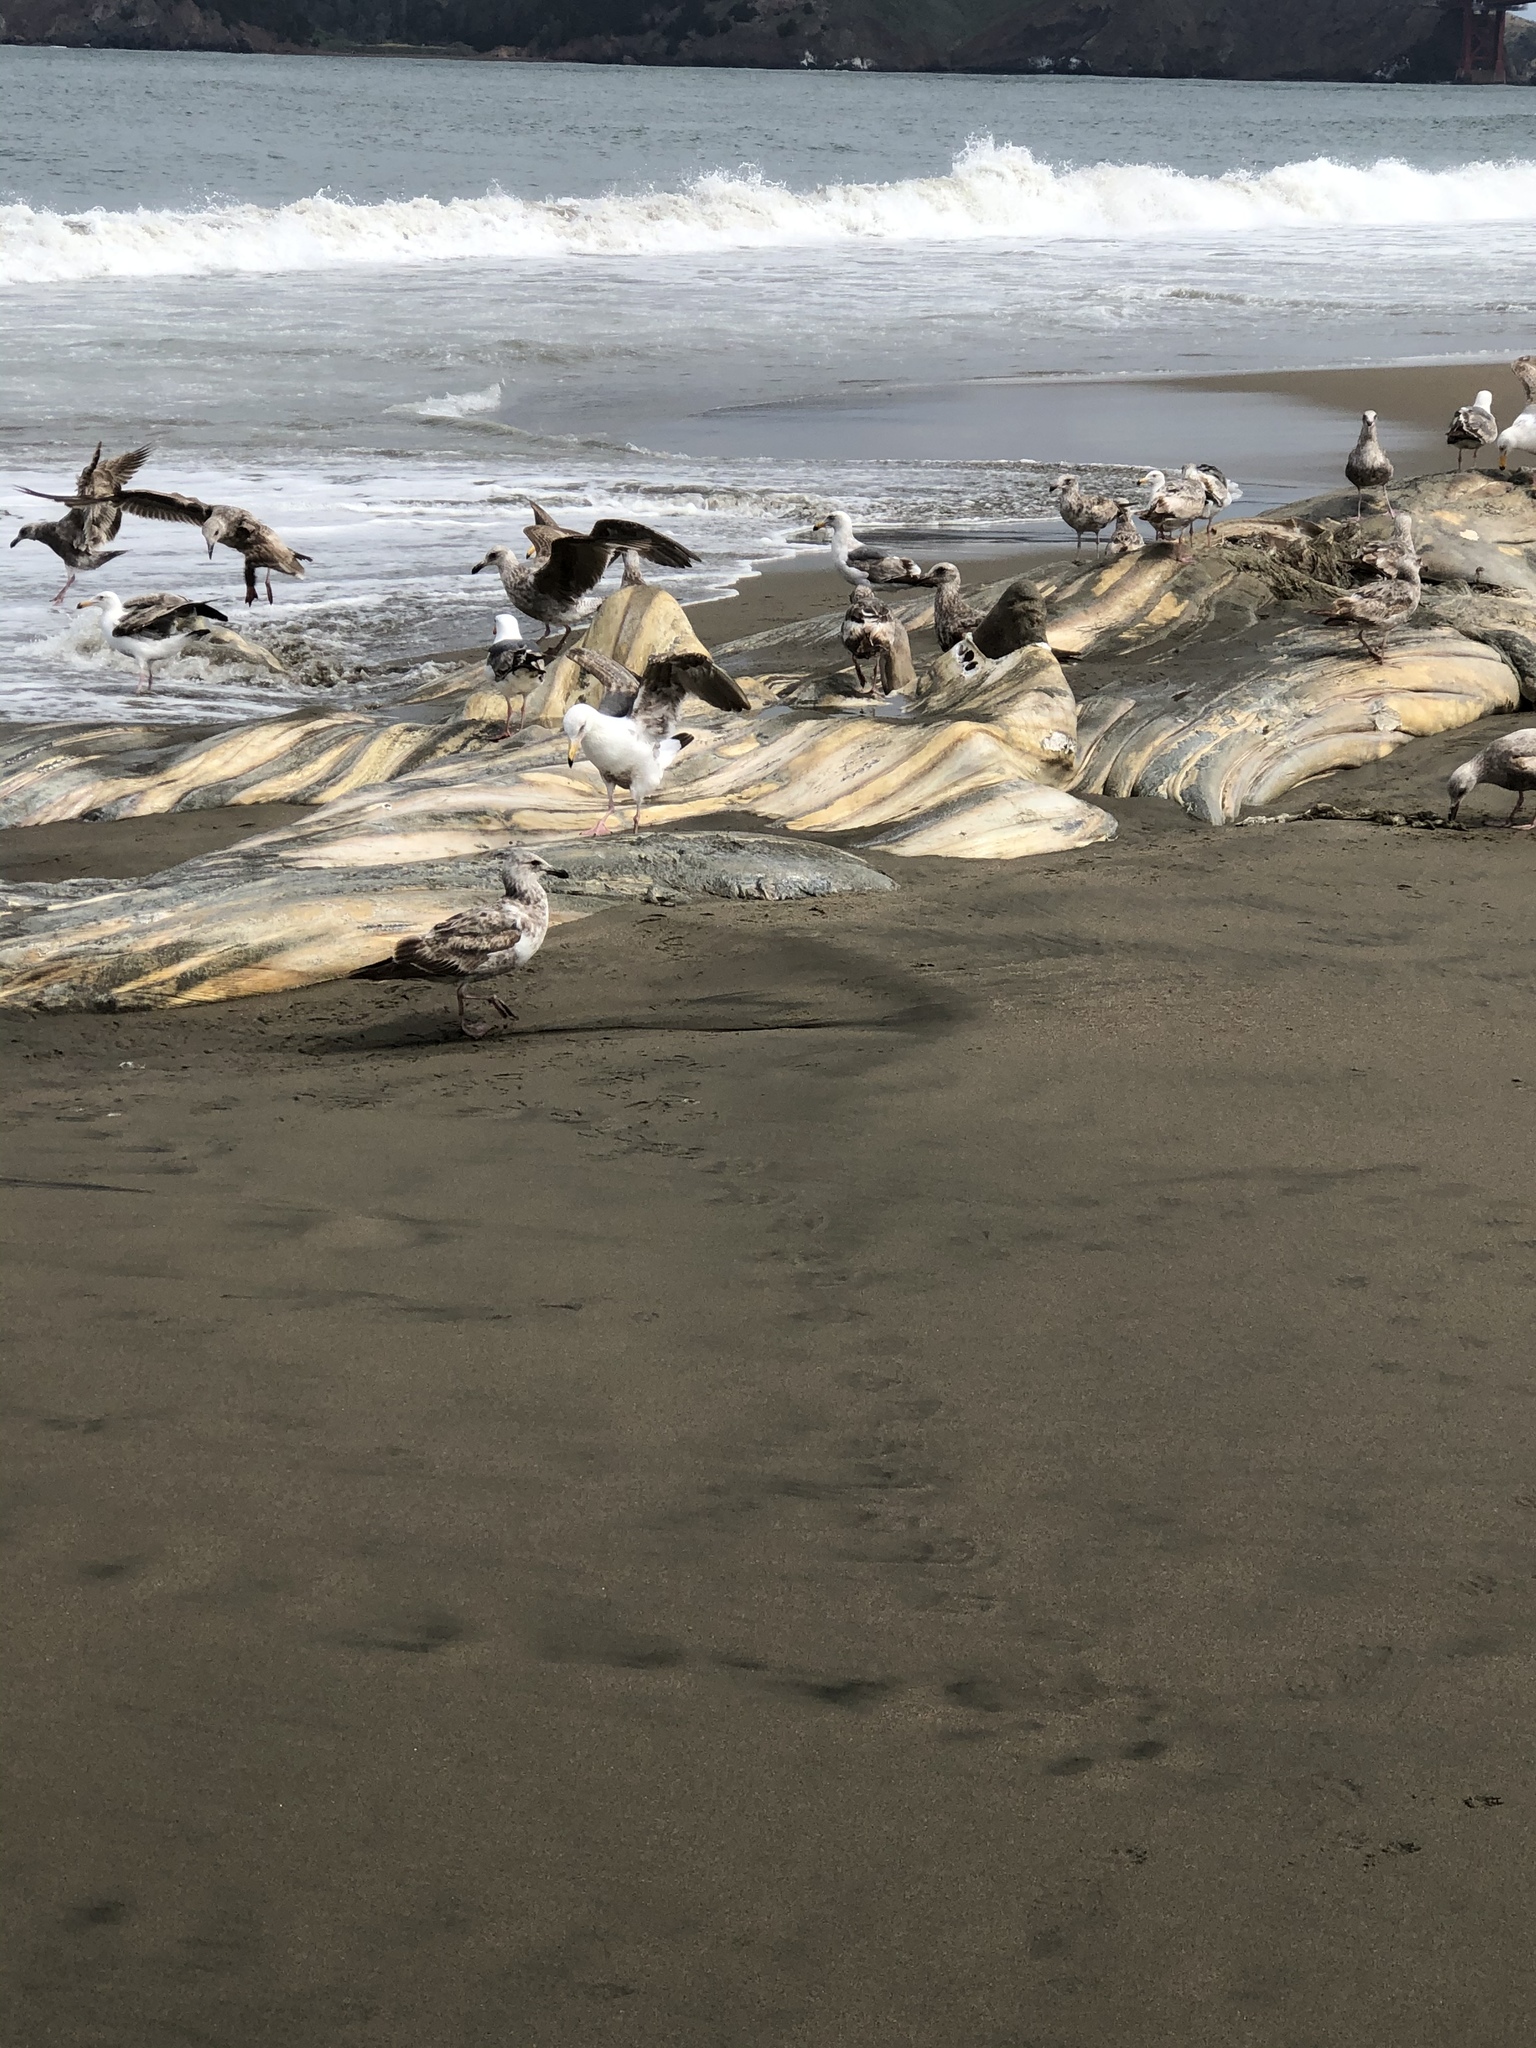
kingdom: Animalia
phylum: Chordata
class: Mammalia
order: Cetacea
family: Balaenopteridae
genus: Megaptera
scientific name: Megaptera novaeangliae
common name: Humpback whale
